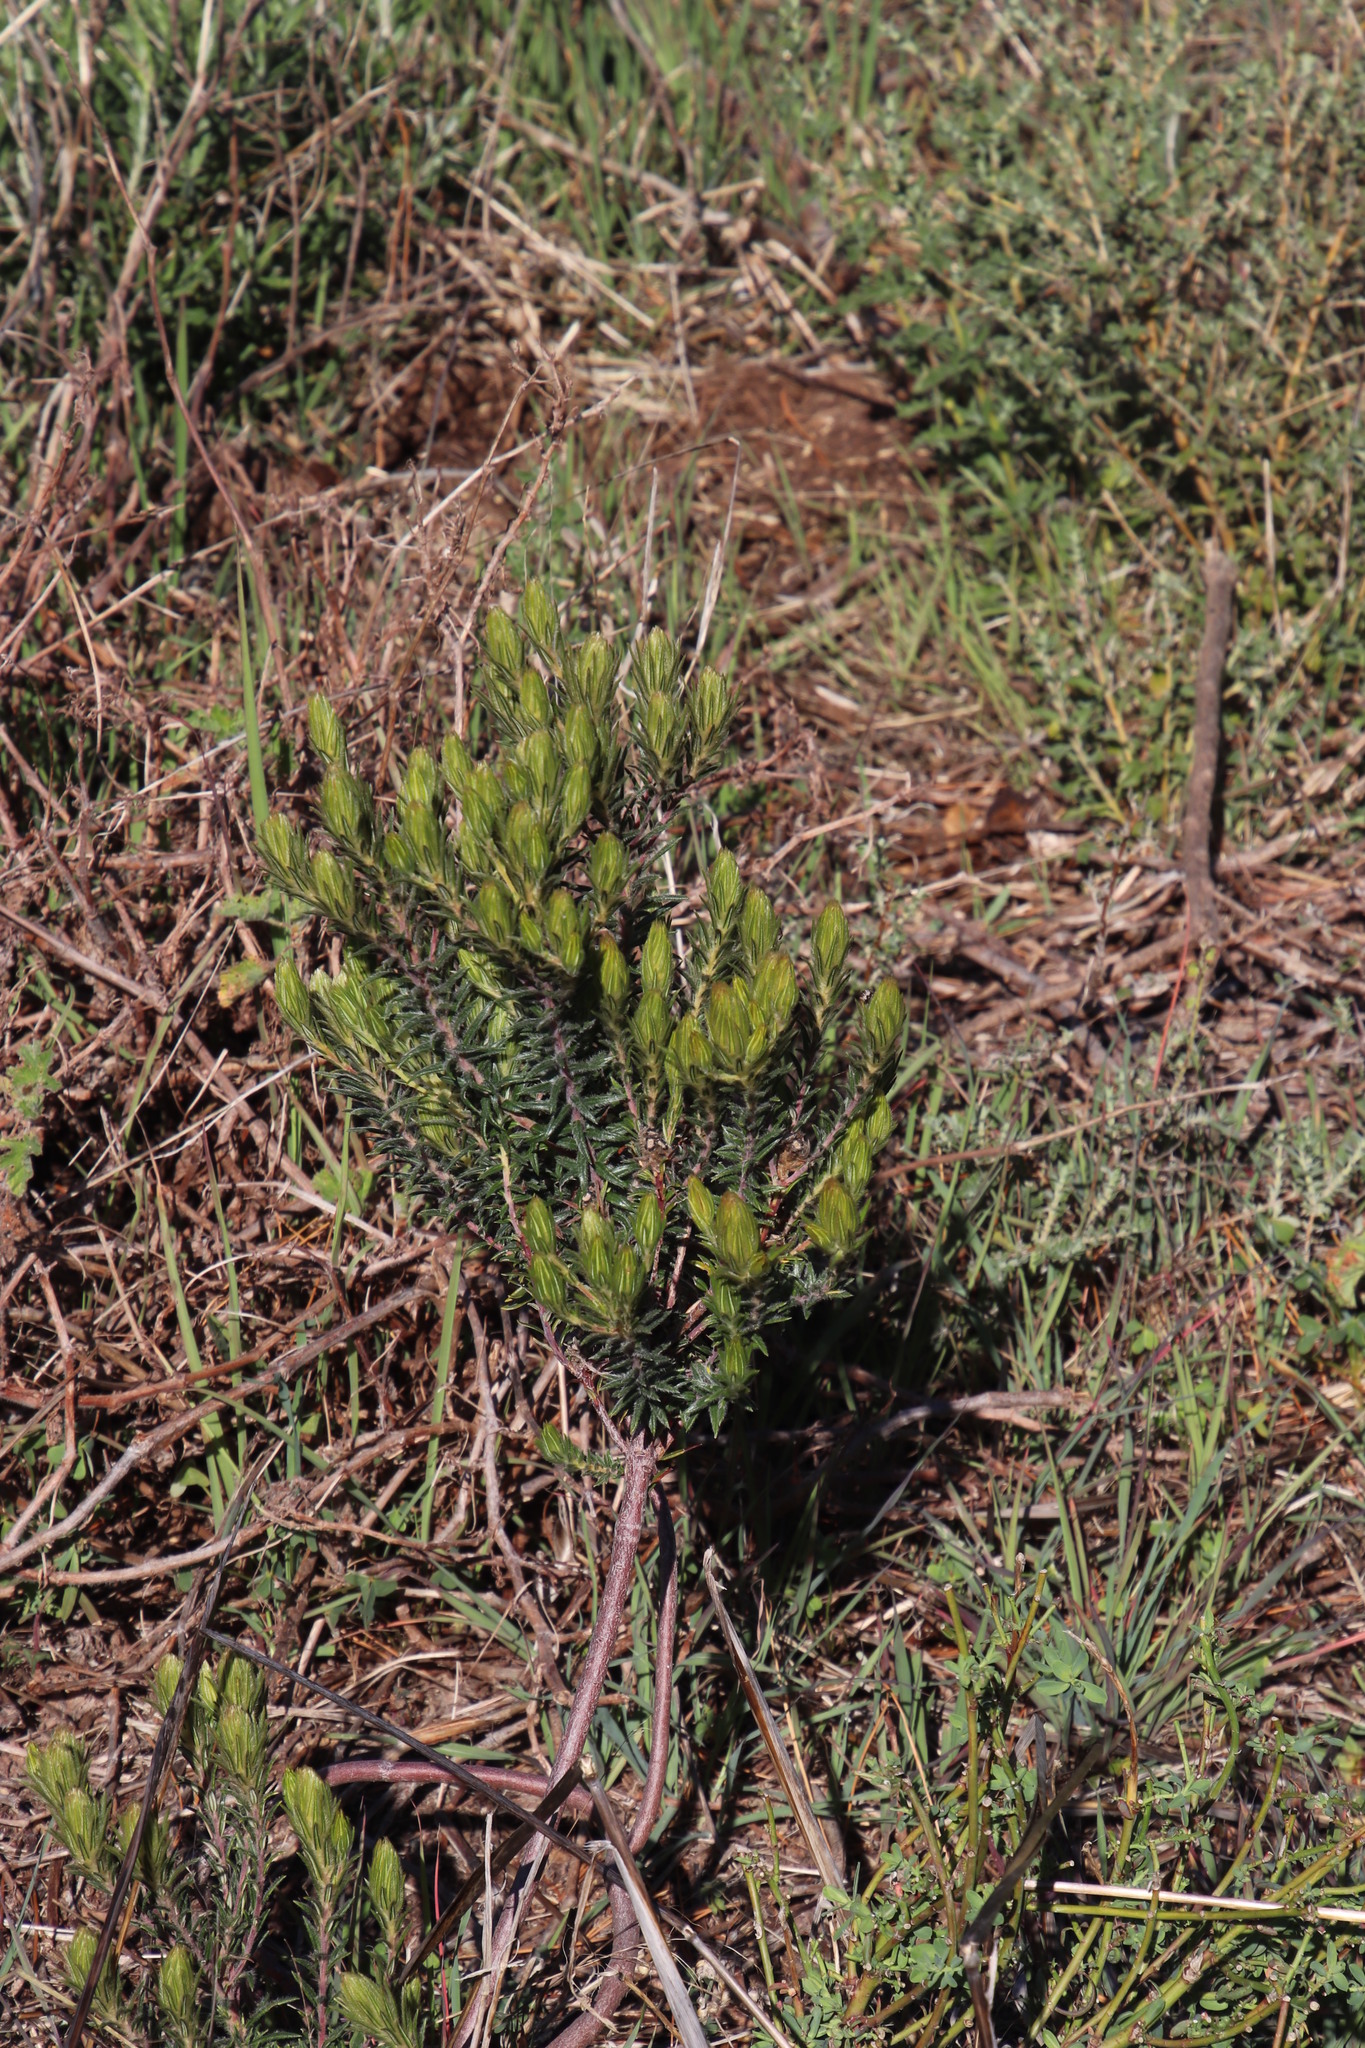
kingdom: Plantae
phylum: Tracheophyta
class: Magnoliopsida
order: Rosales
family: Rhamnaceae
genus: Phylica
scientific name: Phylica pubescens
